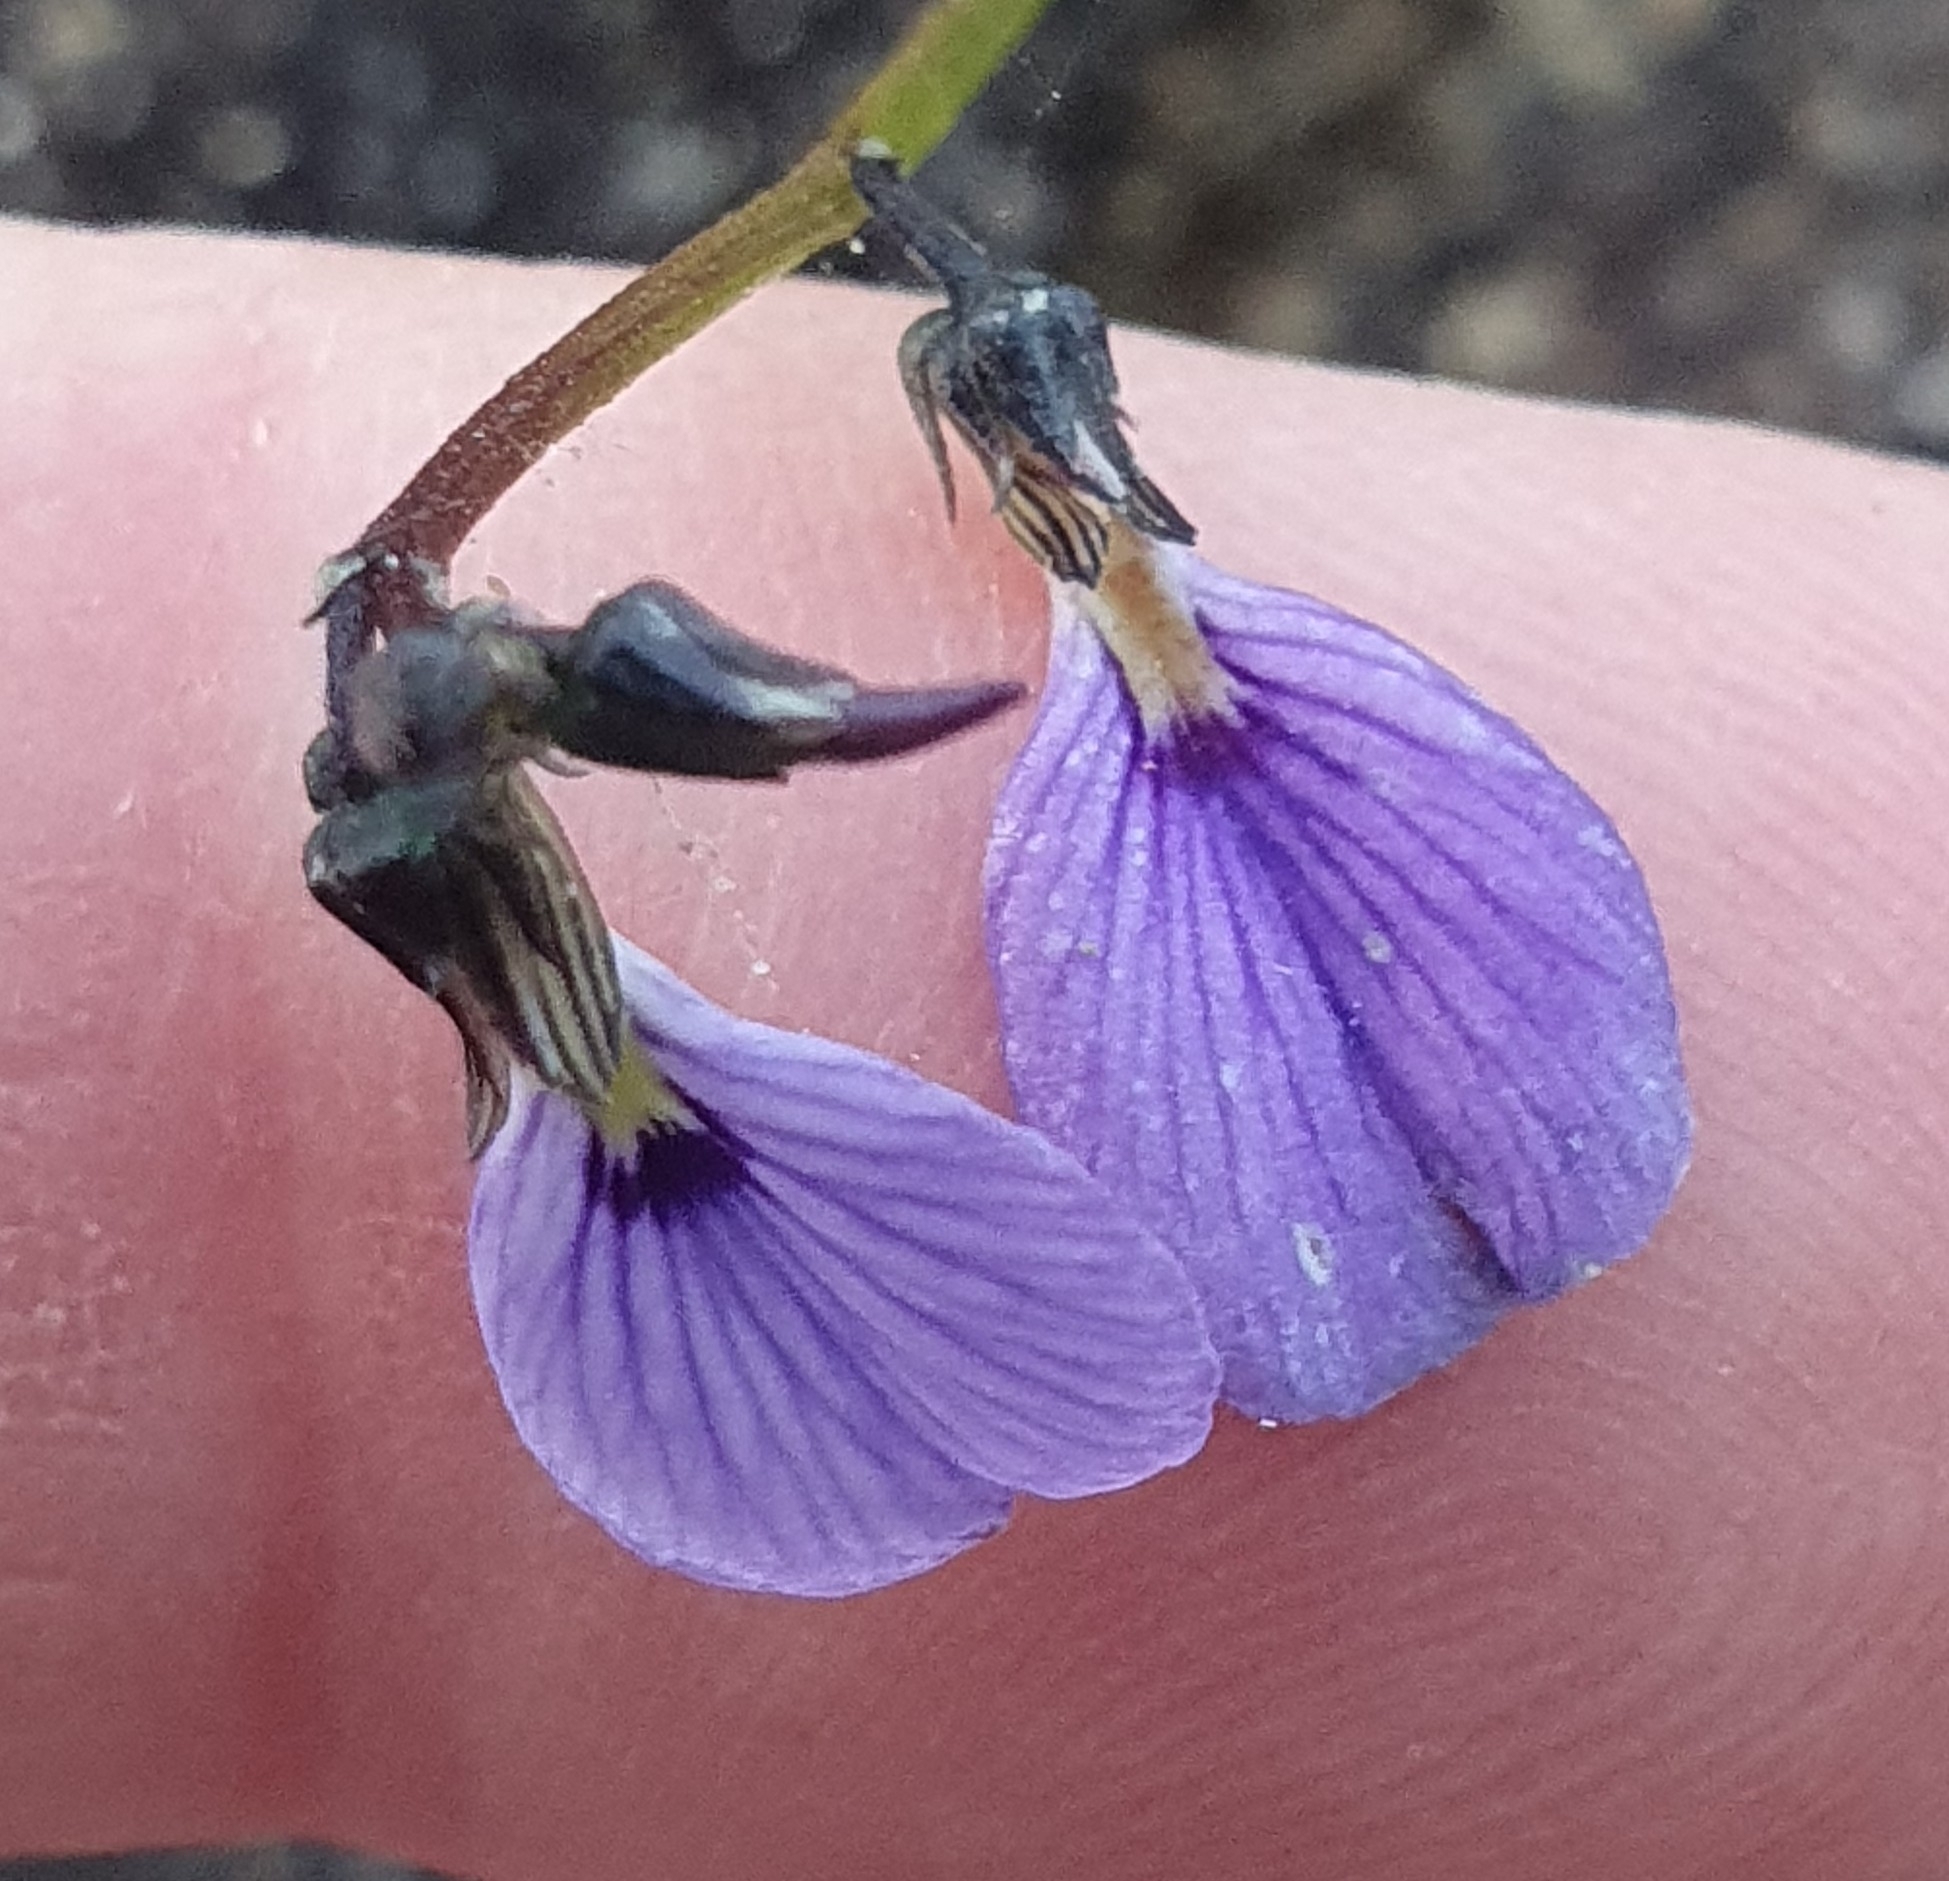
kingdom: Plantae
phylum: Tracheophyta
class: Magnoliopsida
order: Malpighiales
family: Violaceae
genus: Pigea
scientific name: Pigea monopetala
